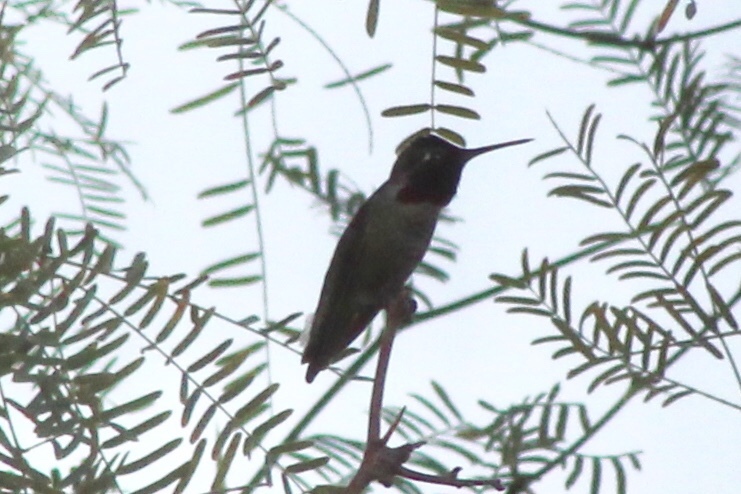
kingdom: Animalia
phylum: Chordata
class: Aves
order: Apodiformes
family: Trochilidae
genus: Calypte
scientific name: Calypte anna
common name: Anna's hummingbird
